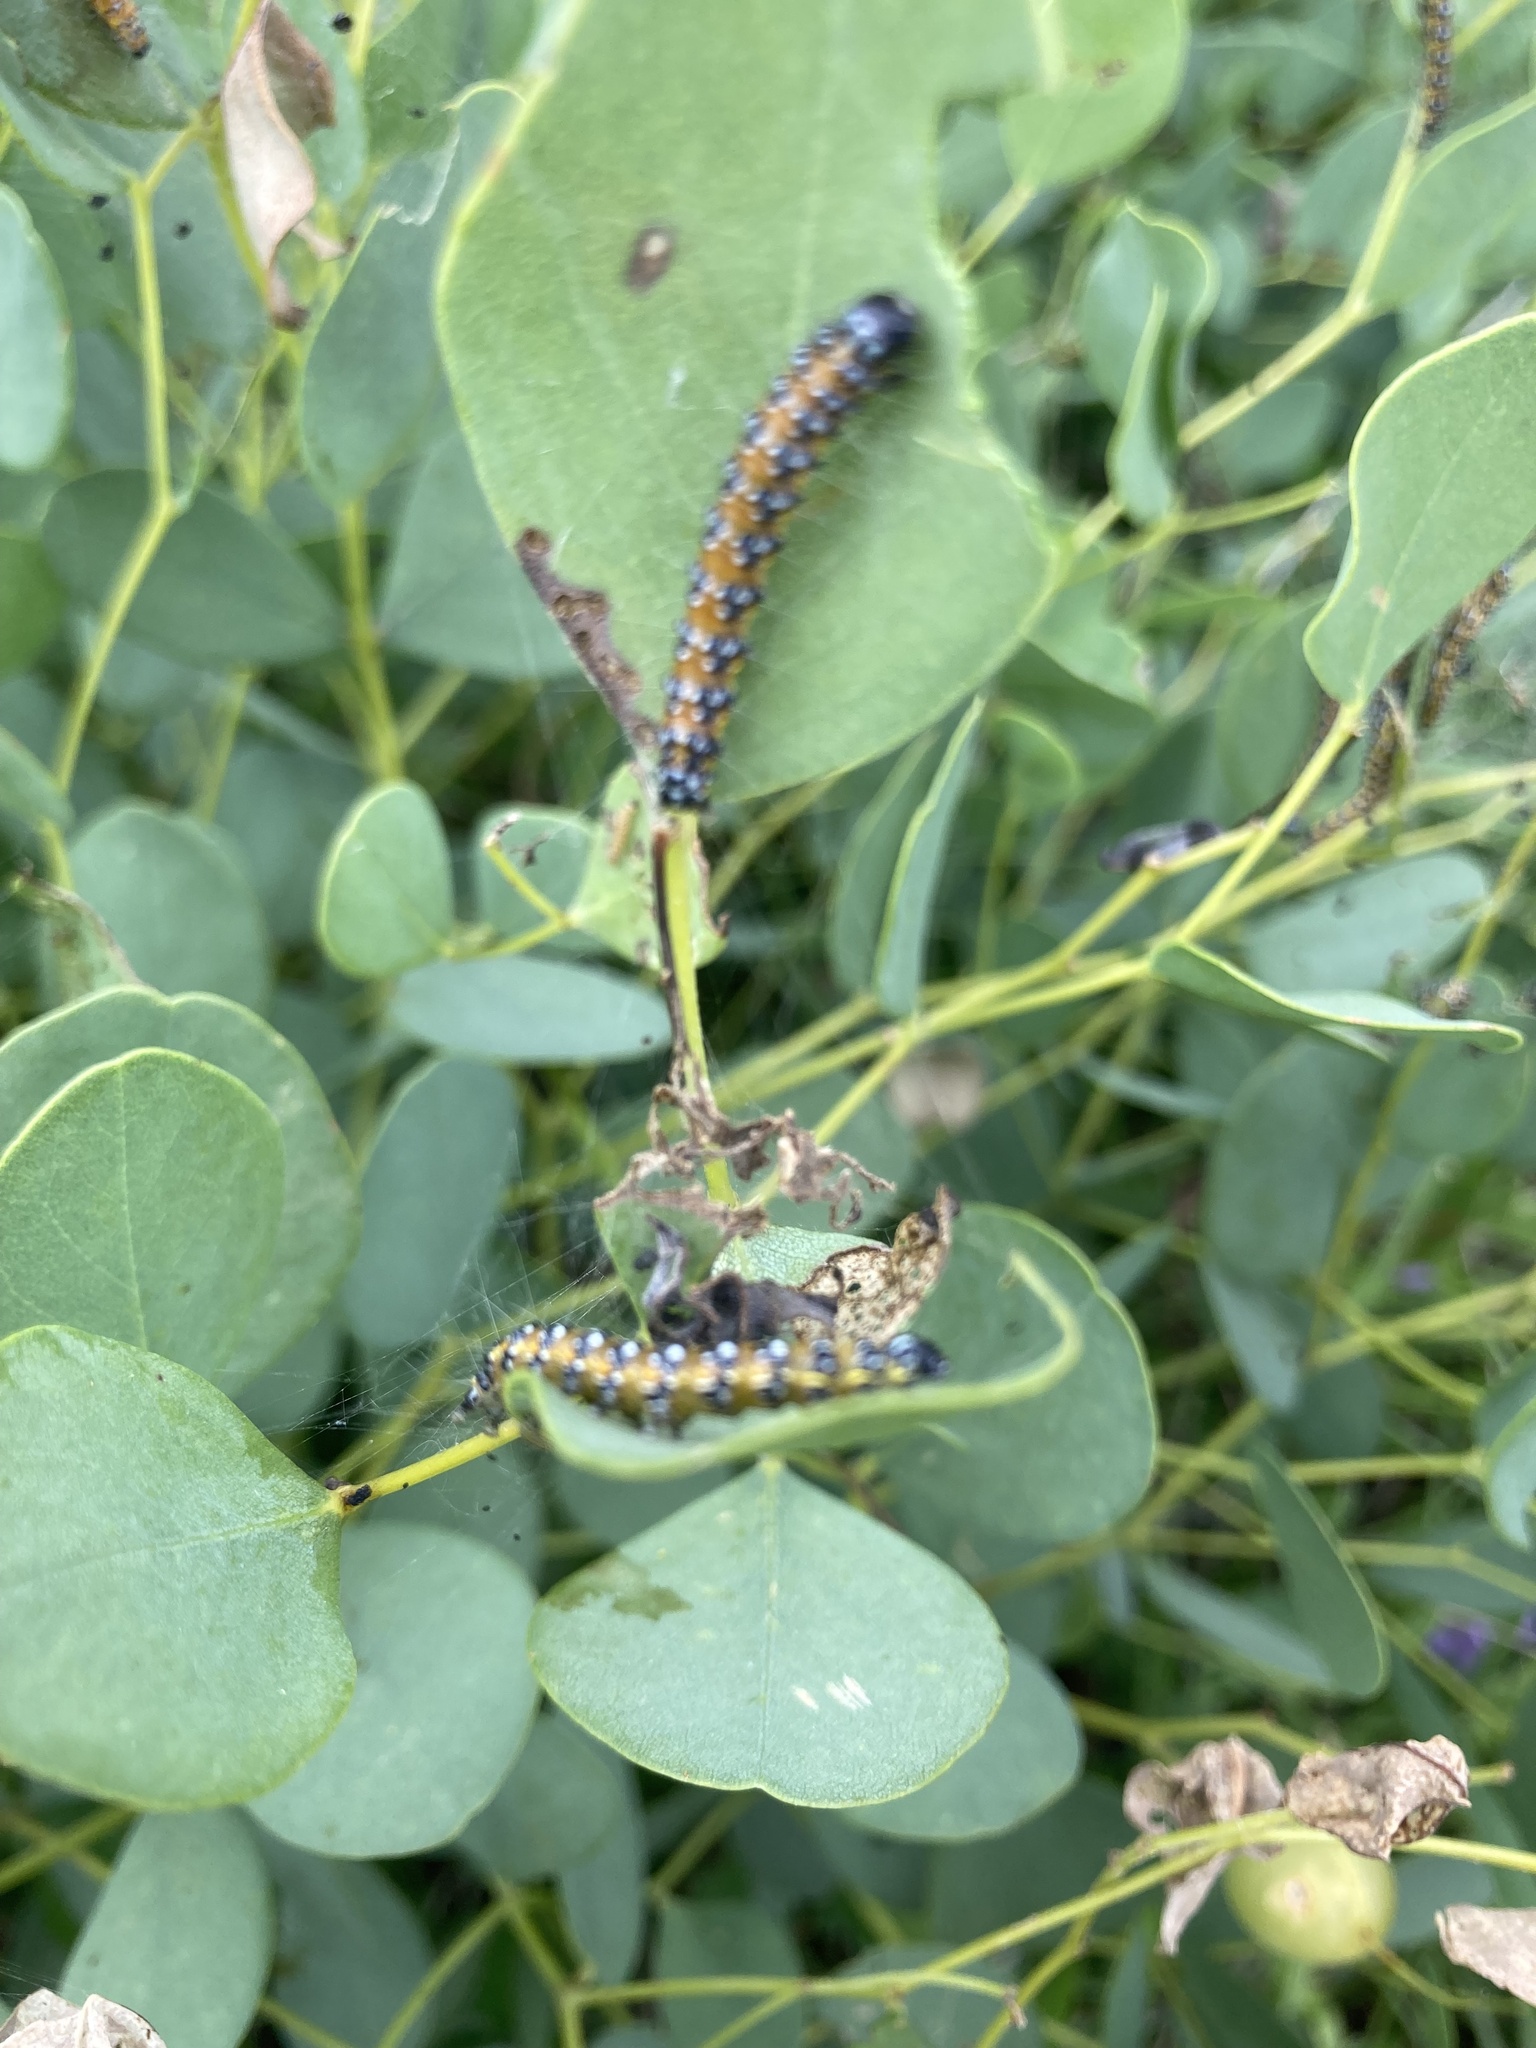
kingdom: Animalia
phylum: Arthropoda
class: Insecta
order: Lepidoptera
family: Crambidae
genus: Uresiphita
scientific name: Uresiphita reversalis
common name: Genista broom moth
